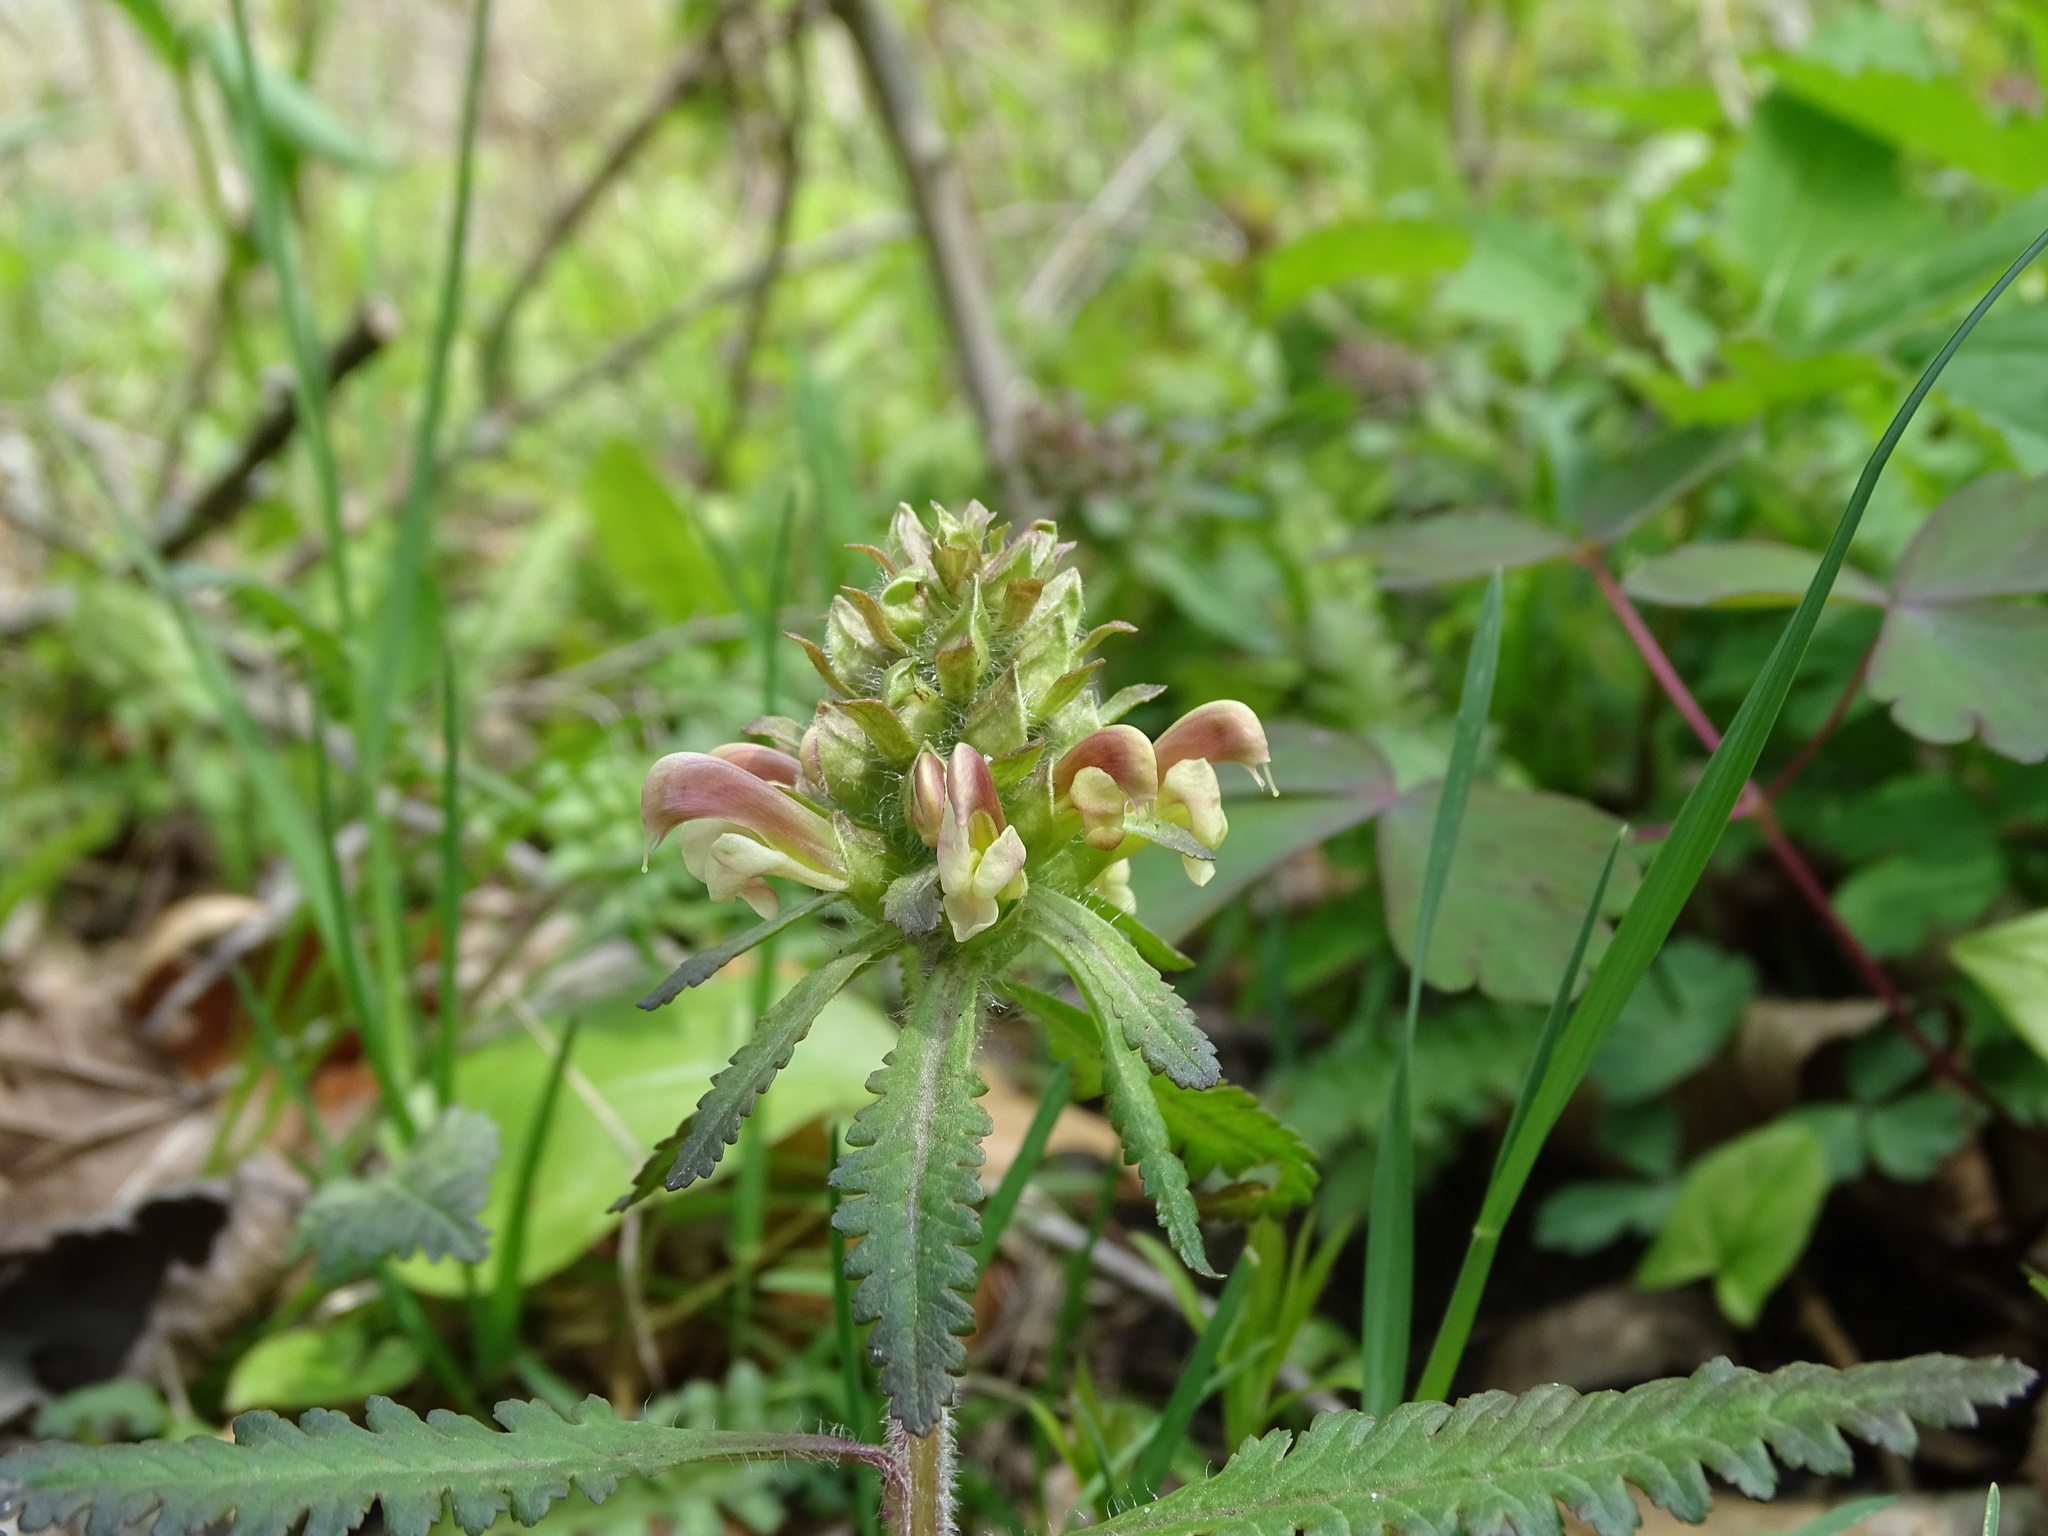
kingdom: Plantae
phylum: Tracheophyta
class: Magnoliopsida
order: Lamiales
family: Orobanchaceae
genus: Pedicularis
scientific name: Pedicularis canadensis
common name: Early lousewort
